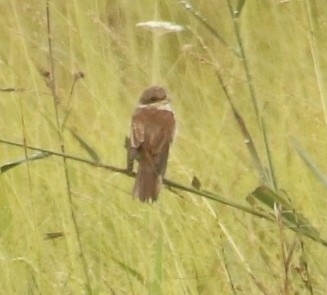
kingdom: Animalia
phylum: Chordata
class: Aves
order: Passeriformes
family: Laniidae
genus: Lanius
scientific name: Lanius collurio
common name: Red-backed shrike
